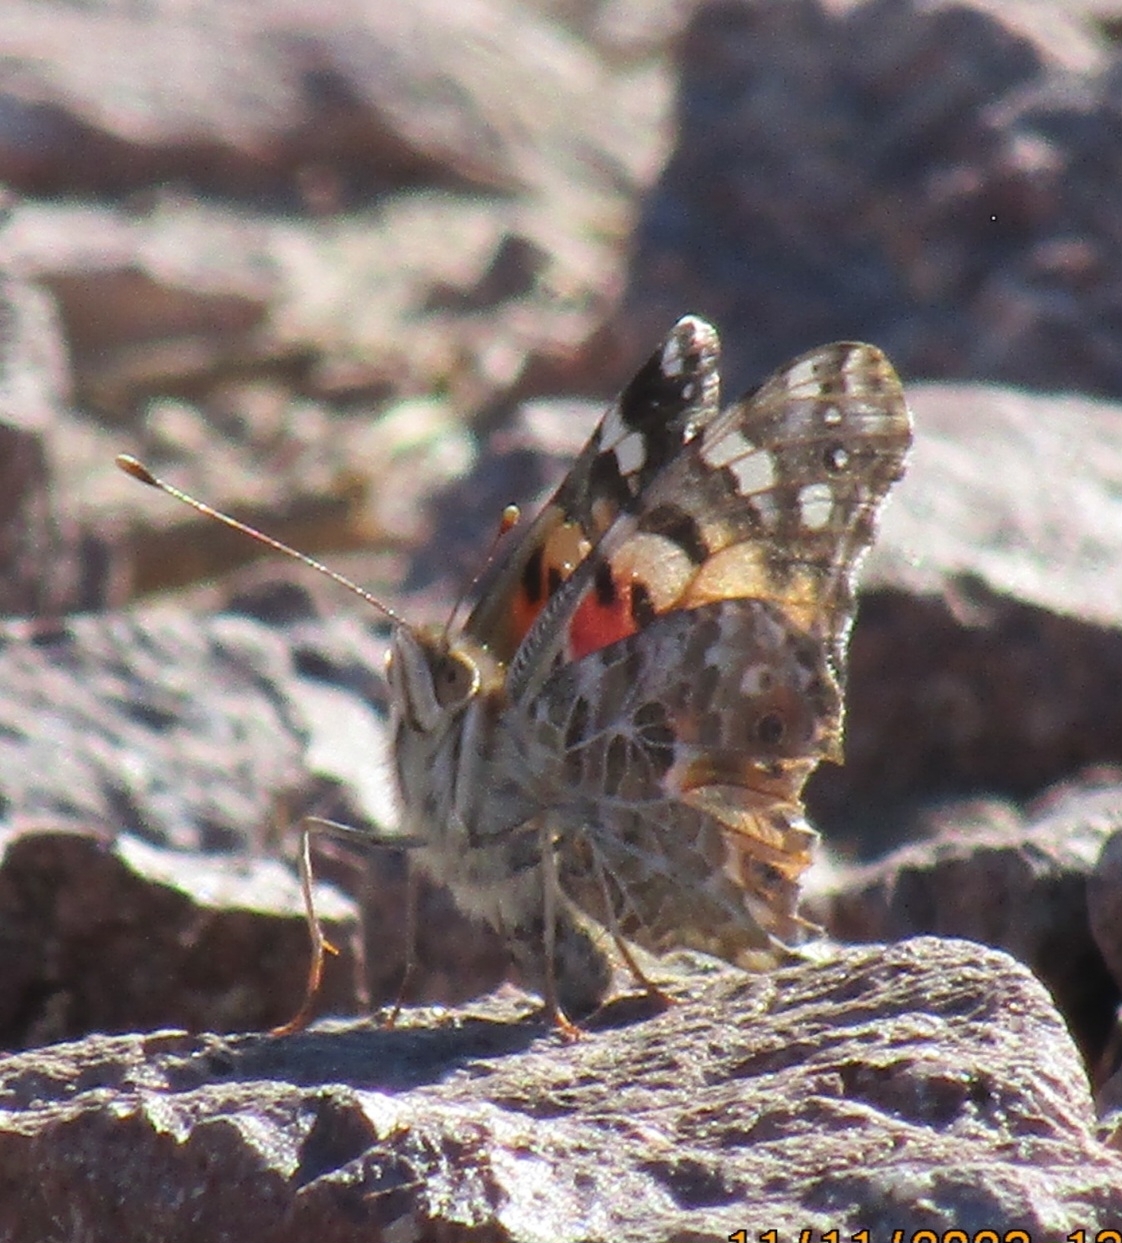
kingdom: Animalia
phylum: Arthropoda
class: Insecta
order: Lepidoptera
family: Nymphalidae
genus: Vanessa
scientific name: Vanessa cardui
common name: Painted lady
